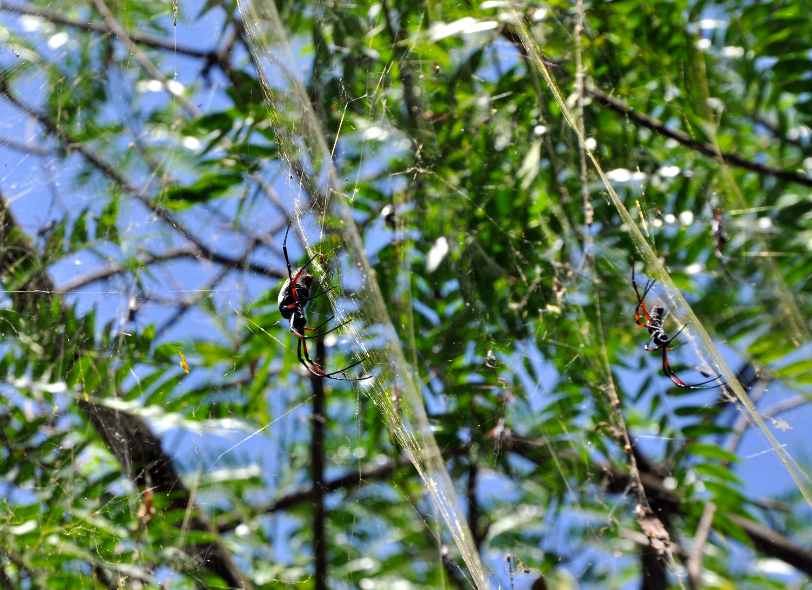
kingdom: Animalia
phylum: Arthropoda
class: Arachnida
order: Araneae
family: Araneidae
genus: Trichonephila
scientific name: Trichonephila inaurata
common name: Red-legged golden orb weaver
